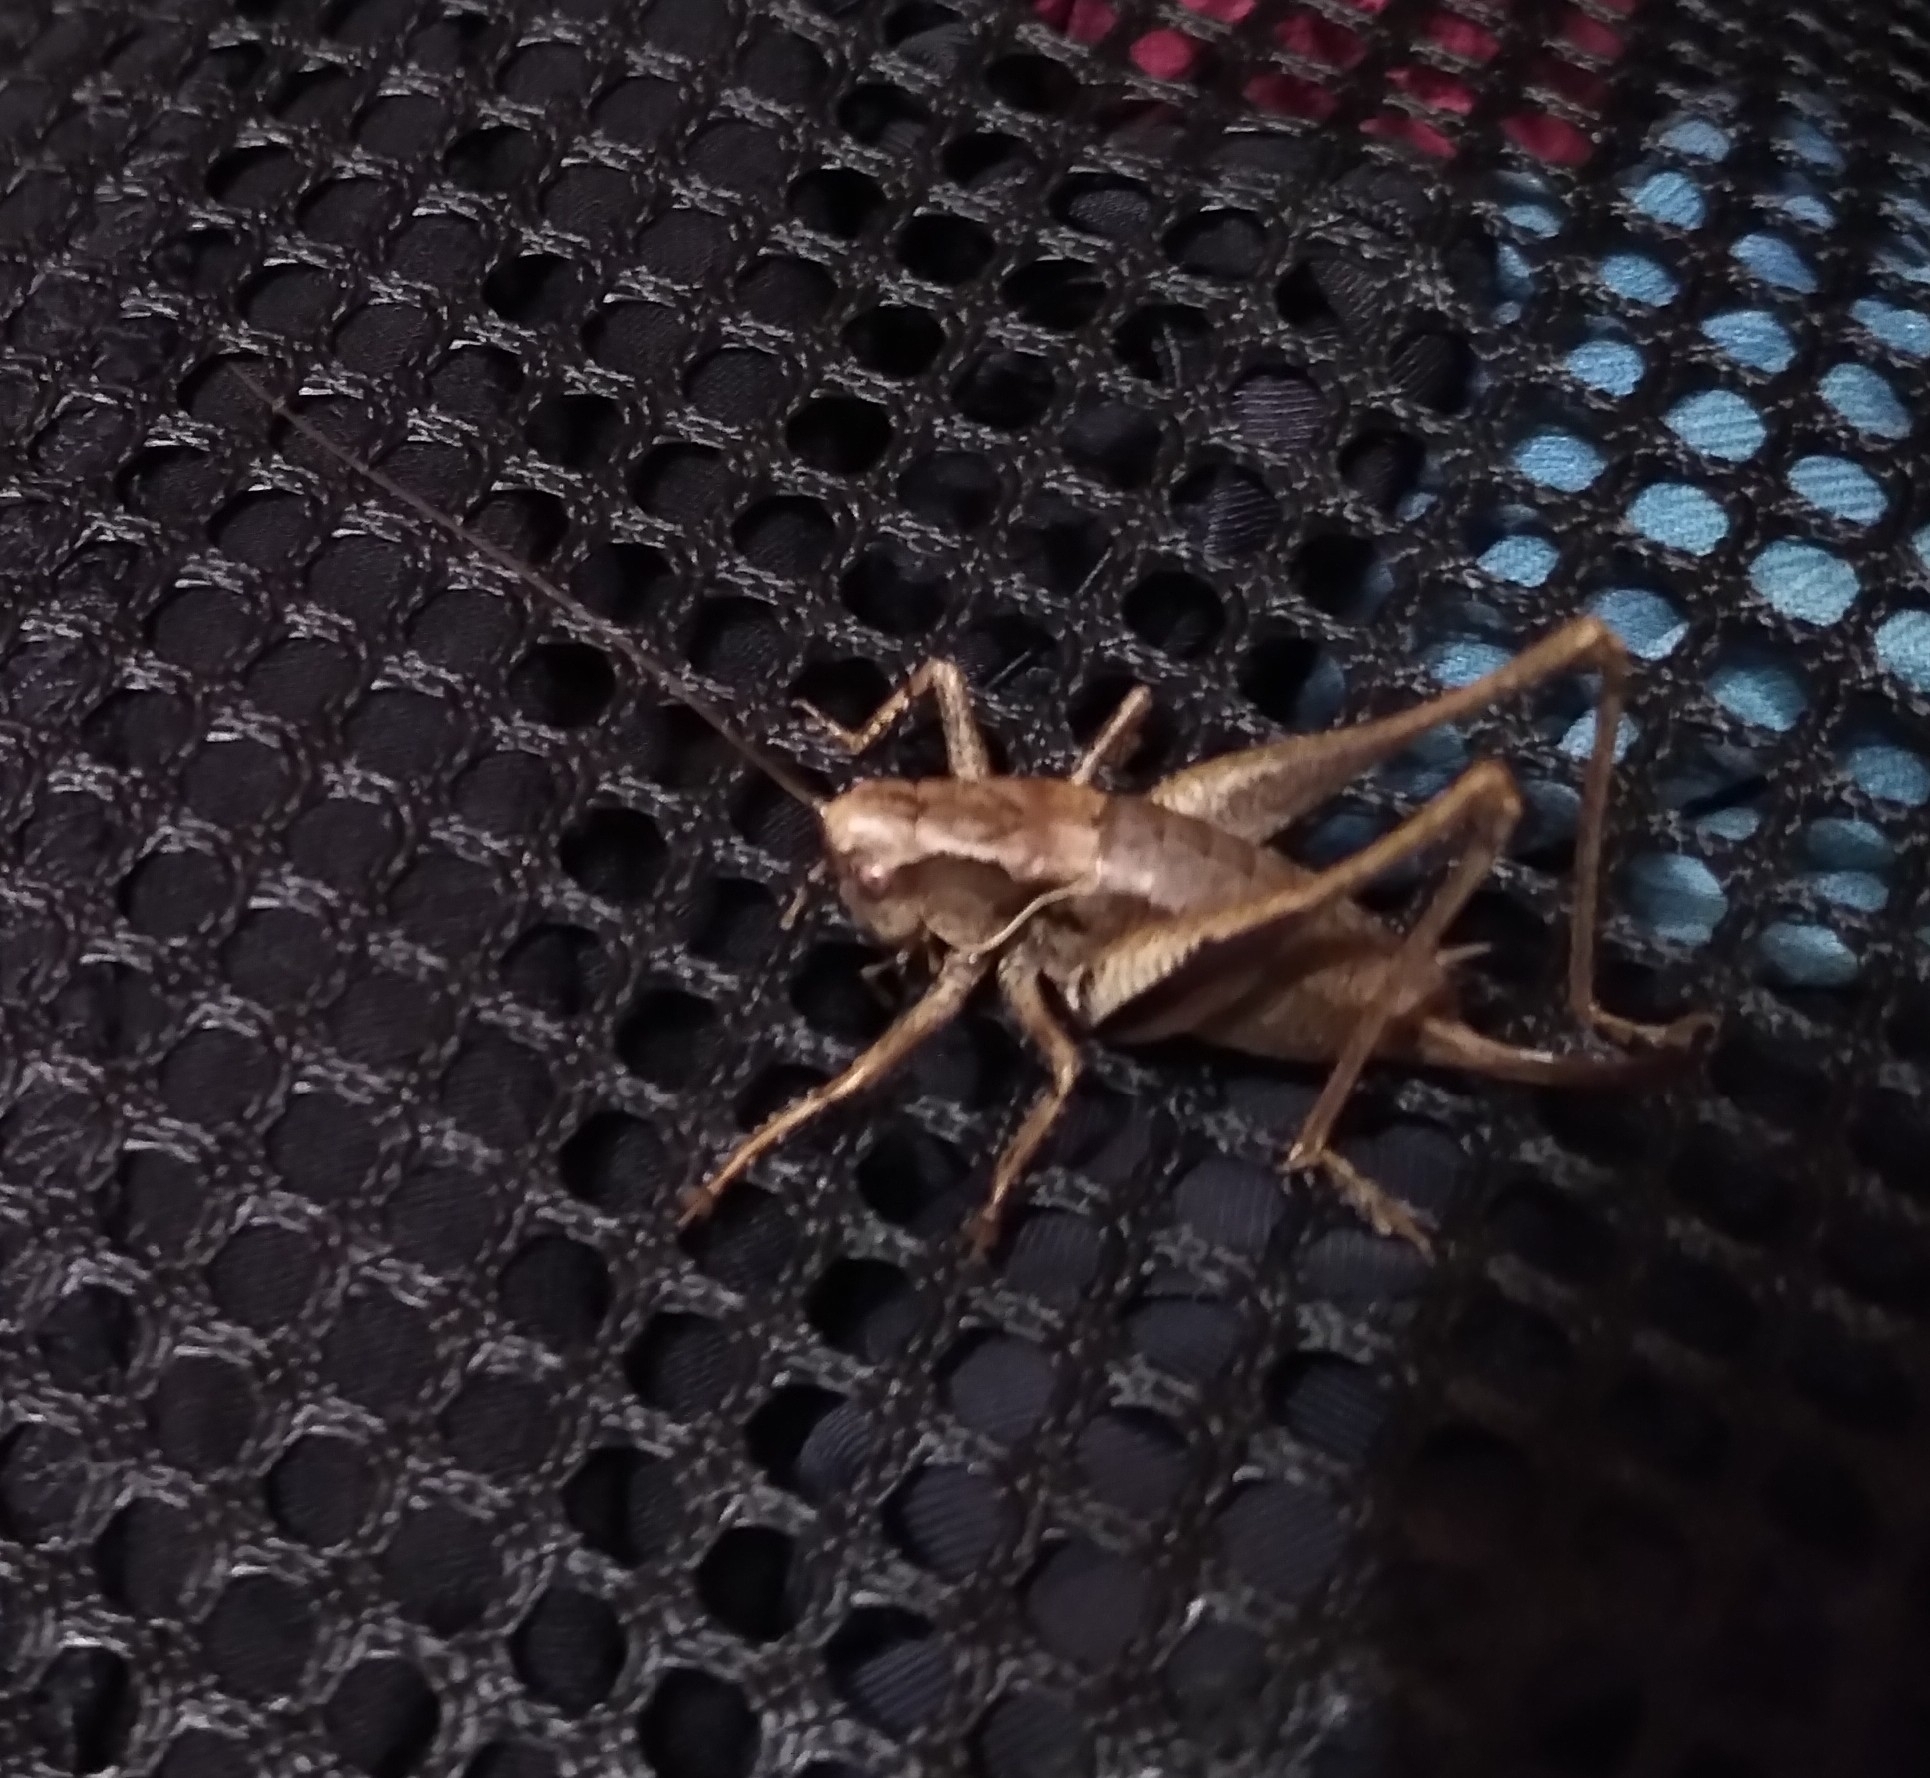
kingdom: Animalia
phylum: Arthropoda
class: Insecta
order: Orthoptera
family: Tettigoniidae
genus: Pholidoptera
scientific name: Pholidoptera griseoaptera
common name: Dark bush-cricket
